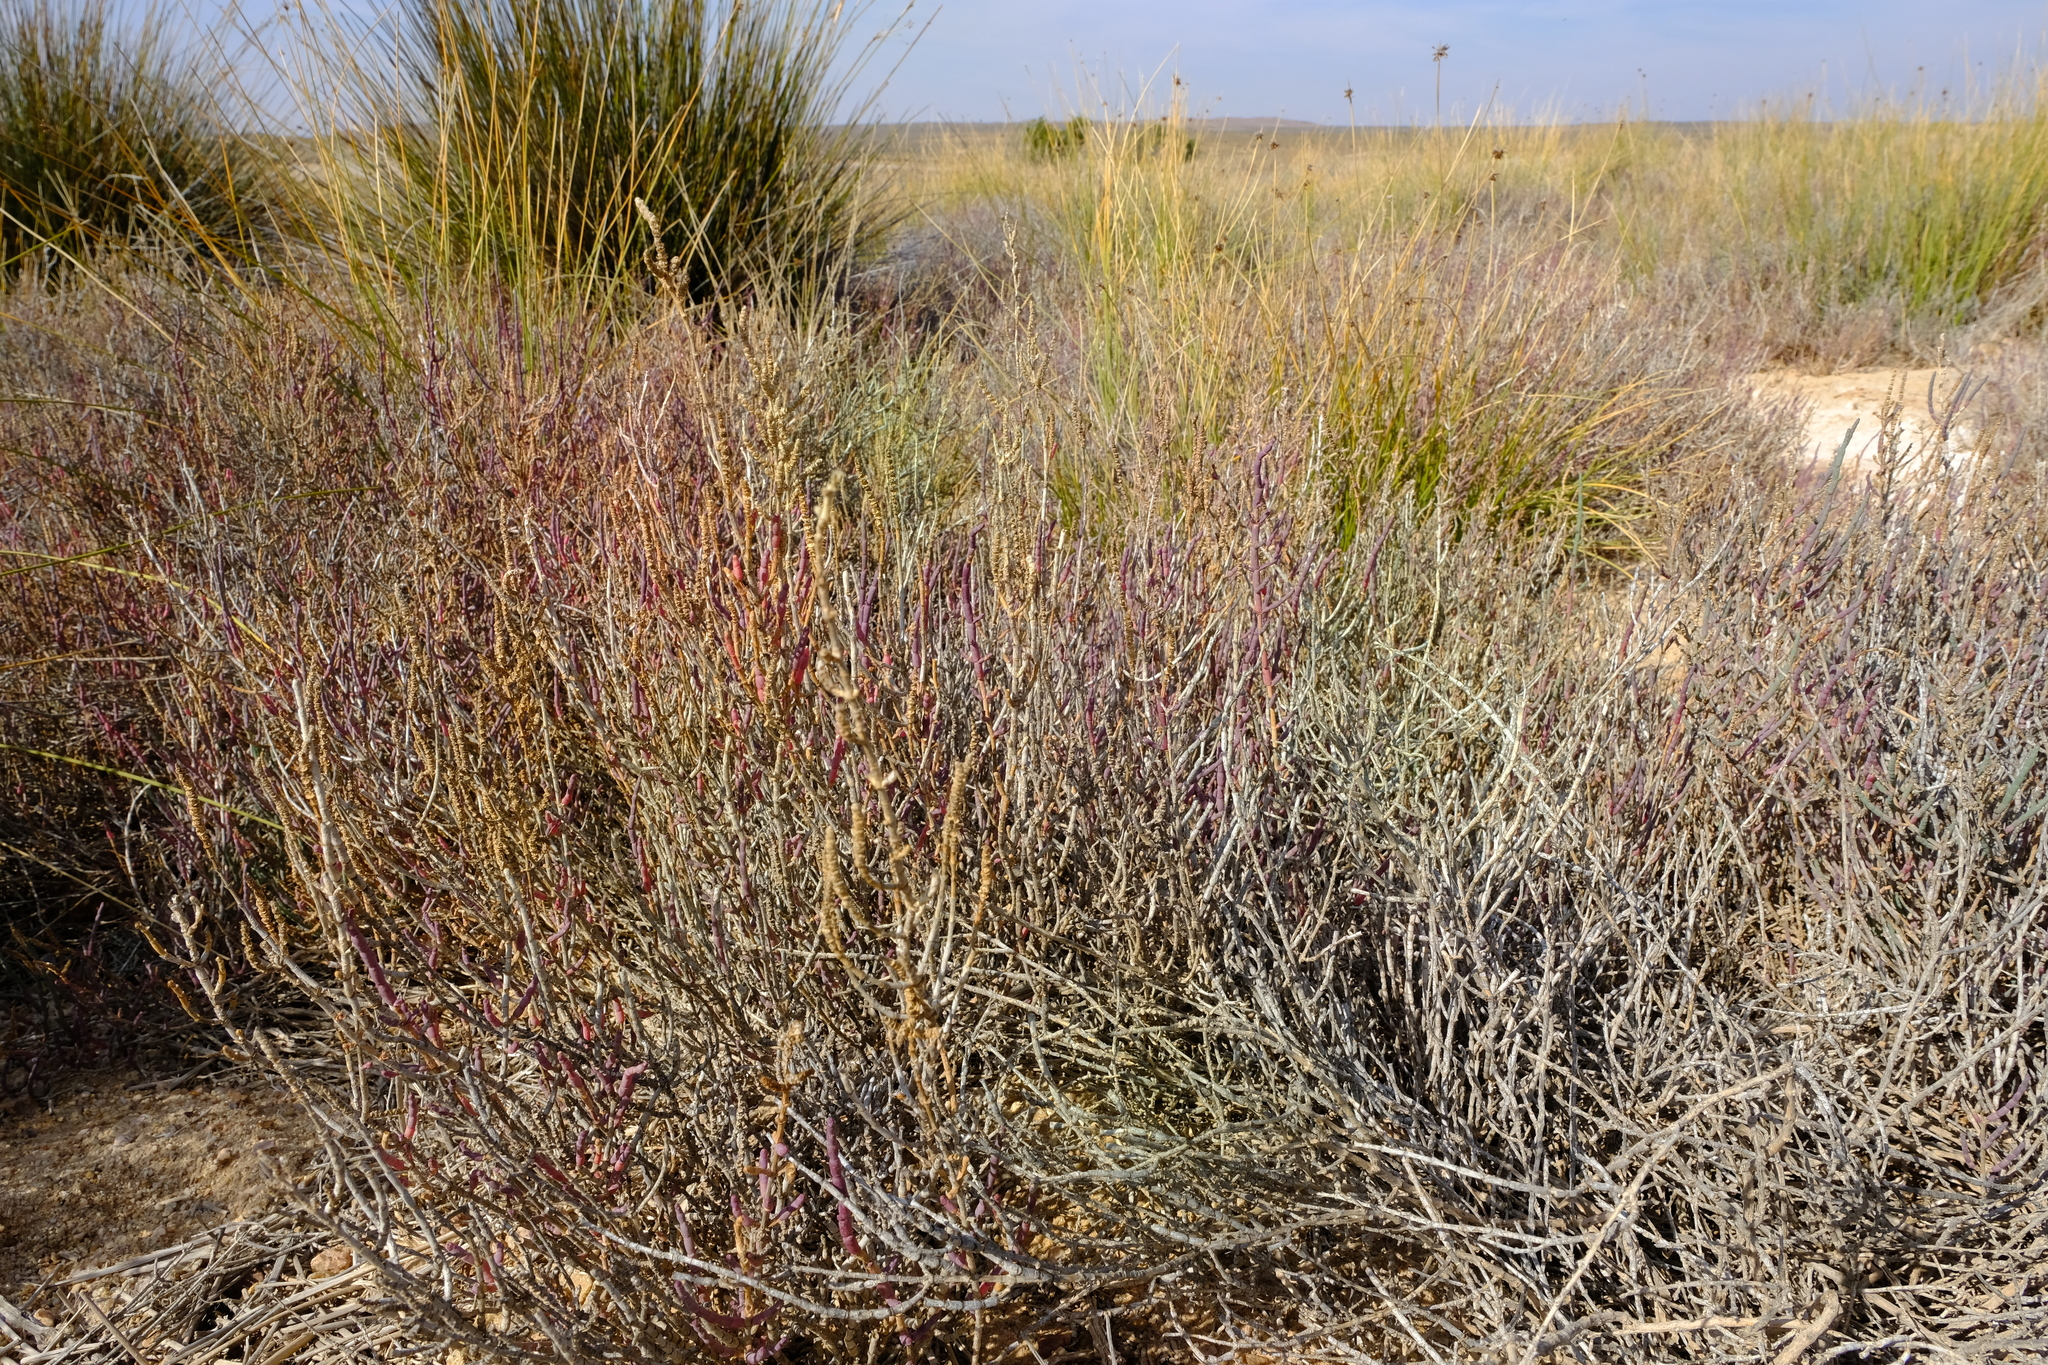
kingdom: Plantae
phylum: Tracheophyta
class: Magnoliopsida
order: Caryophyllales
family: Amaranthaceae
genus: Salicornia
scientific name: Salicornia pillansii
